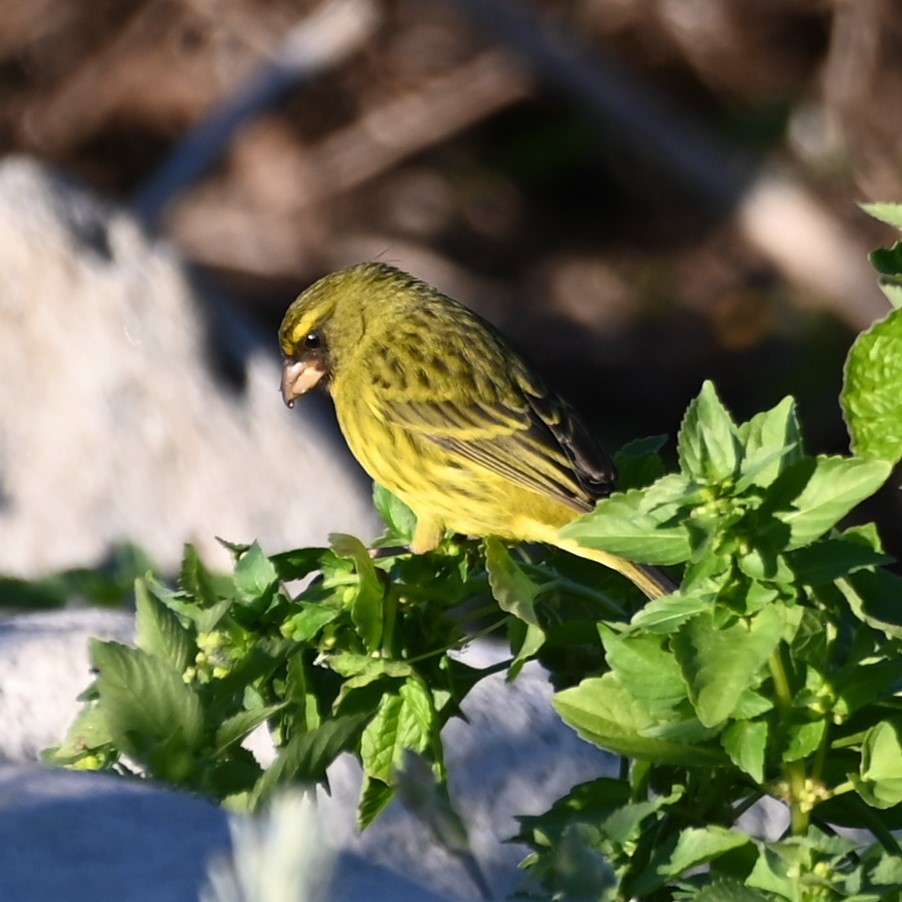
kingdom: Animalia
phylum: Chordata
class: Aves
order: Passeriformes
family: Fringillidae
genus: Crithagra
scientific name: Crithagra scotops
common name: Forest canary
